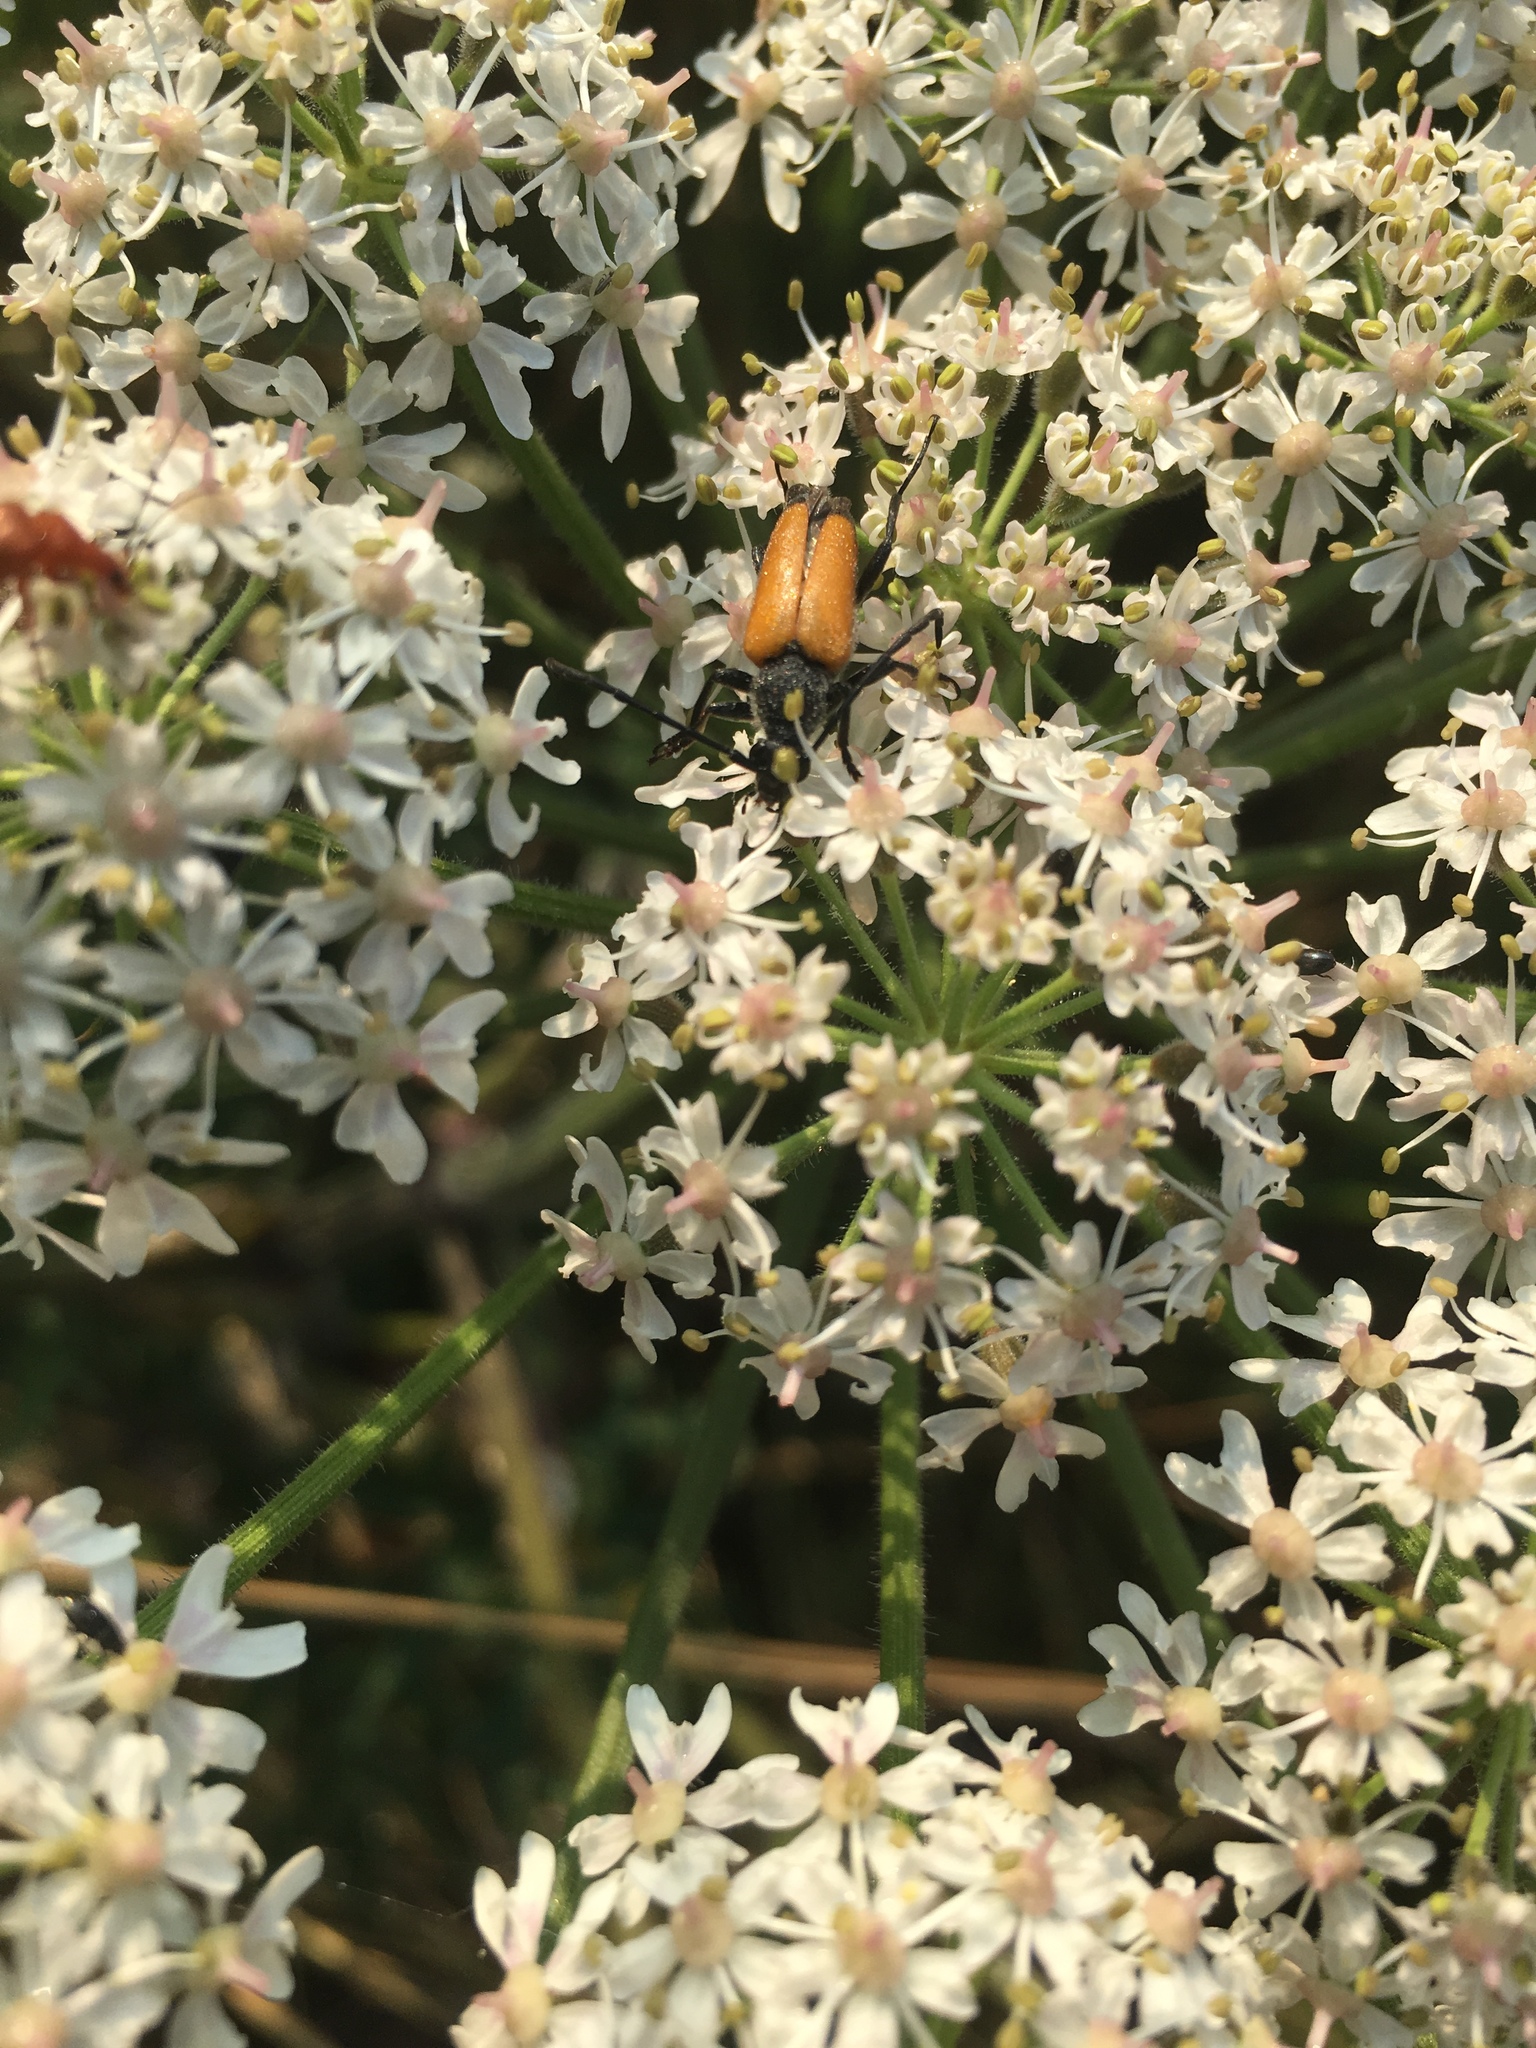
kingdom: Animalia
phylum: Arthropoda
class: Insecta
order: Coleoptera
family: Cerambycidae
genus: Paracorymbia
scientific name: Paracorymbia fulva
